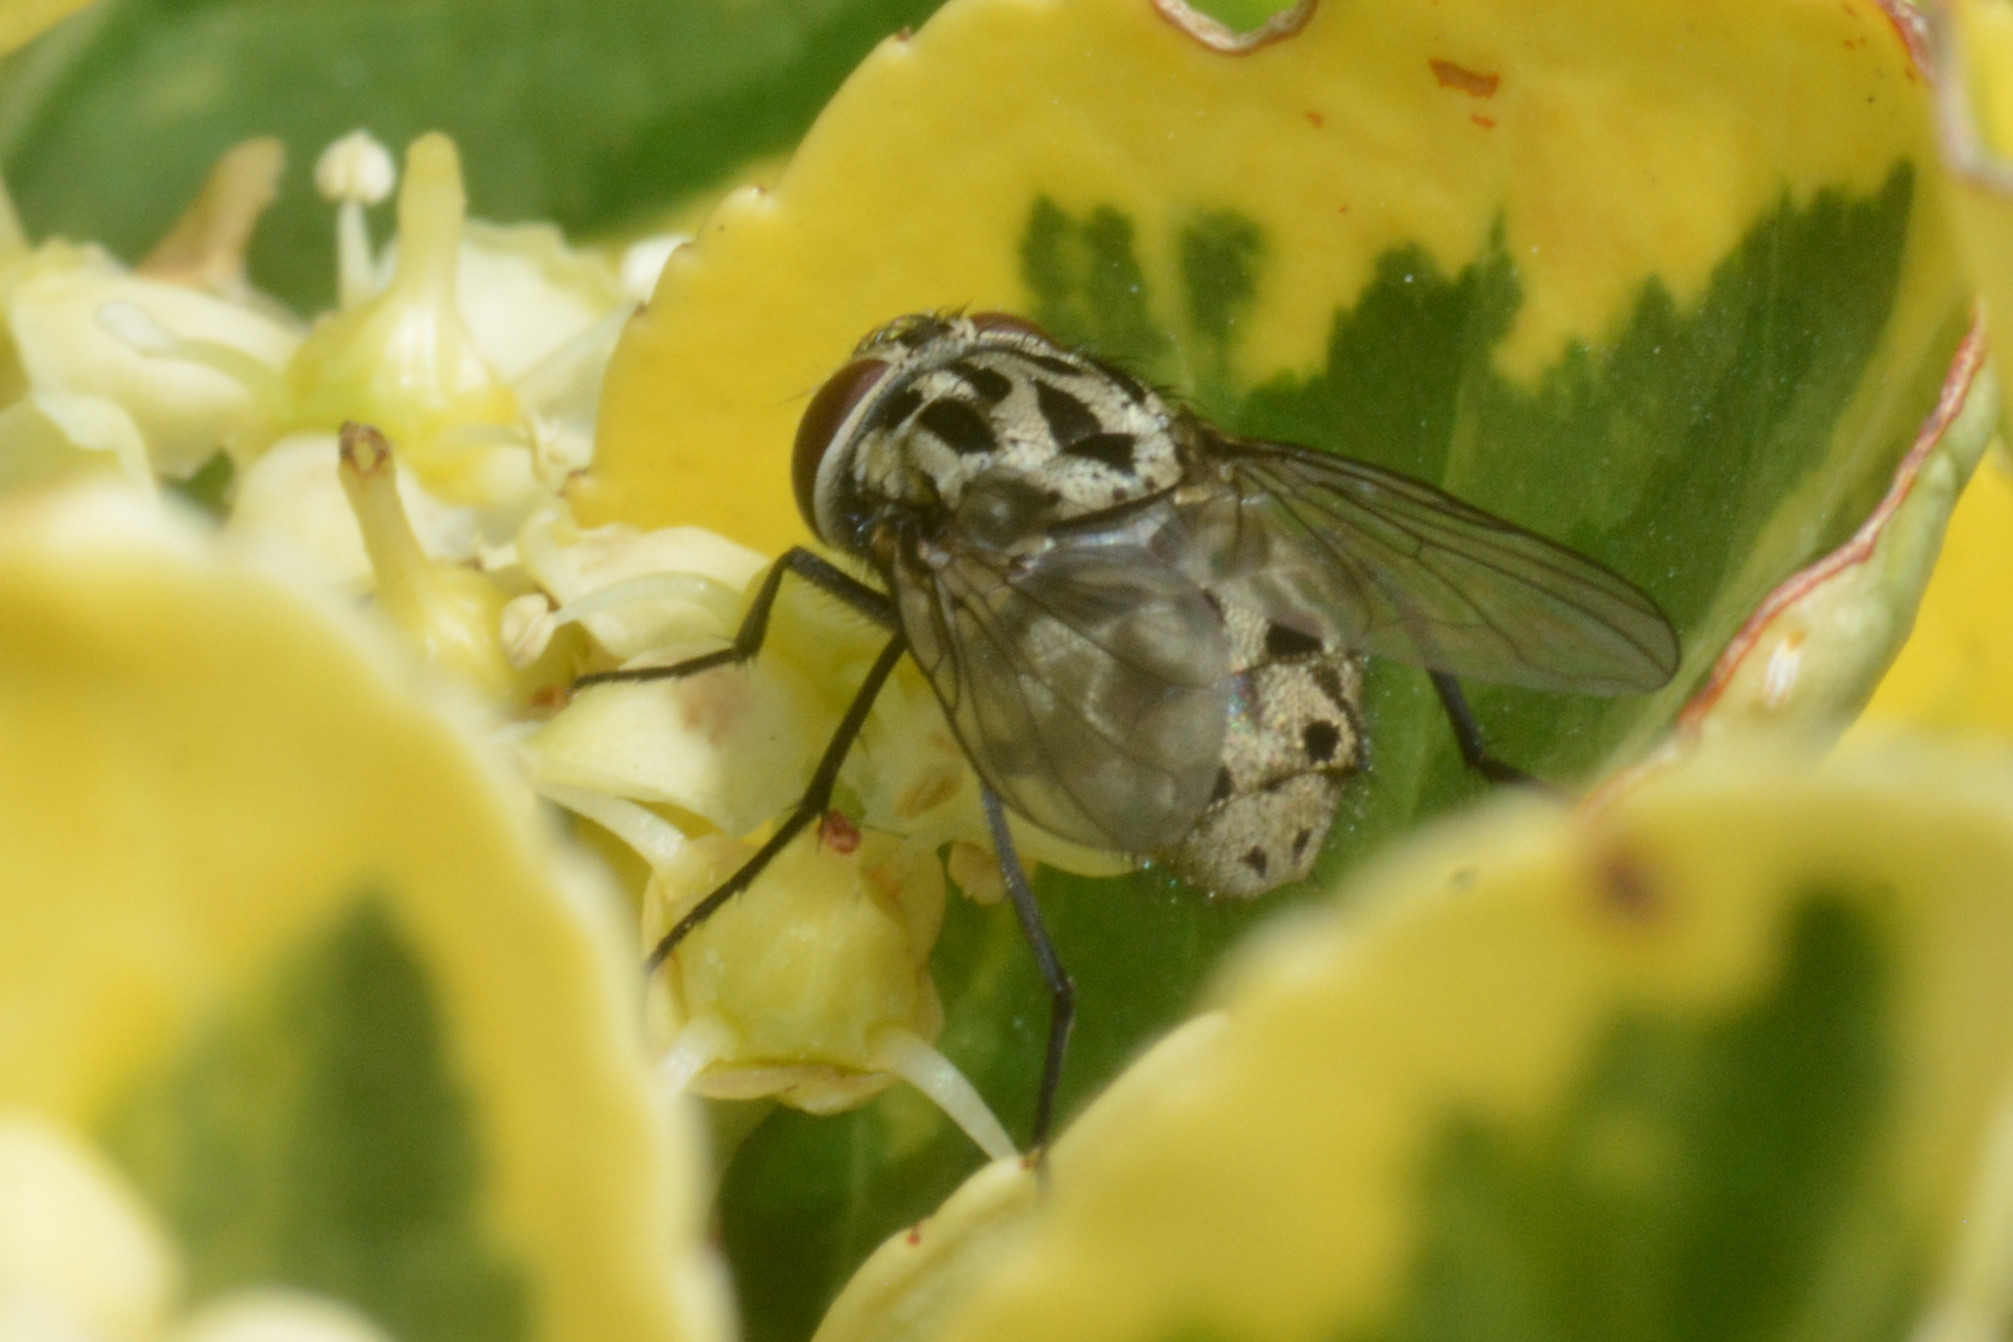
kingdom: Animalia
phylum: Arthropoda
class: Insecta
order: Diptera
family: Muscidae
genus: Graphomya
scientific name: Graphomya maculata
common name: Muscid fly
